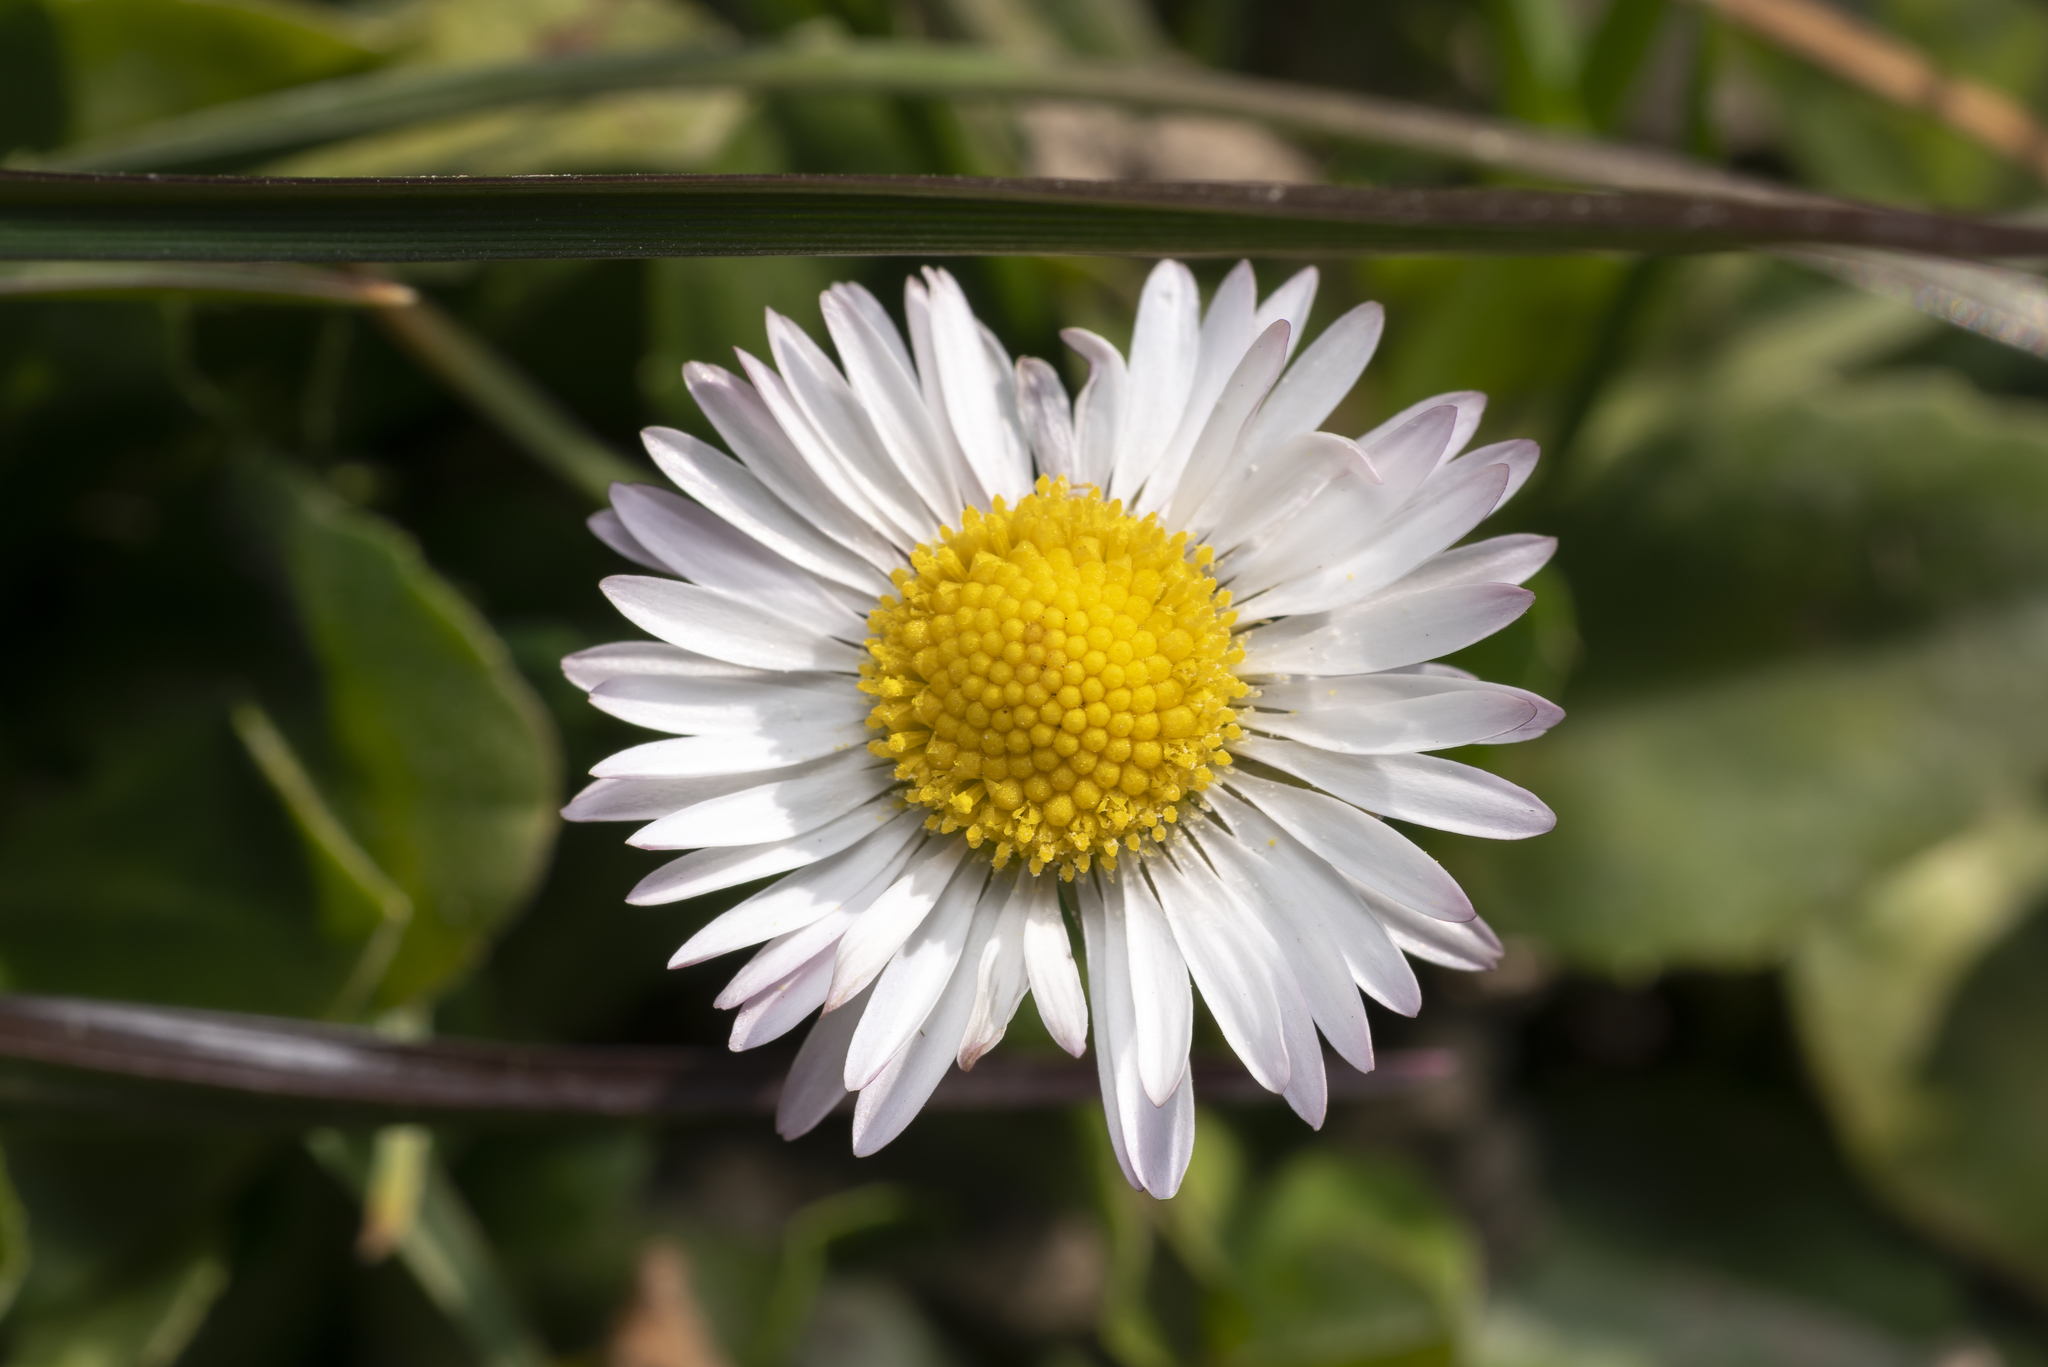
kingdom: Plantae
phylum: Tracheophyta
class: Magnoliopsida
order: Asterales
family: Asteraceae
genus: Bellis
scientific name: Bellis perennis
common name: Lawndaisy
